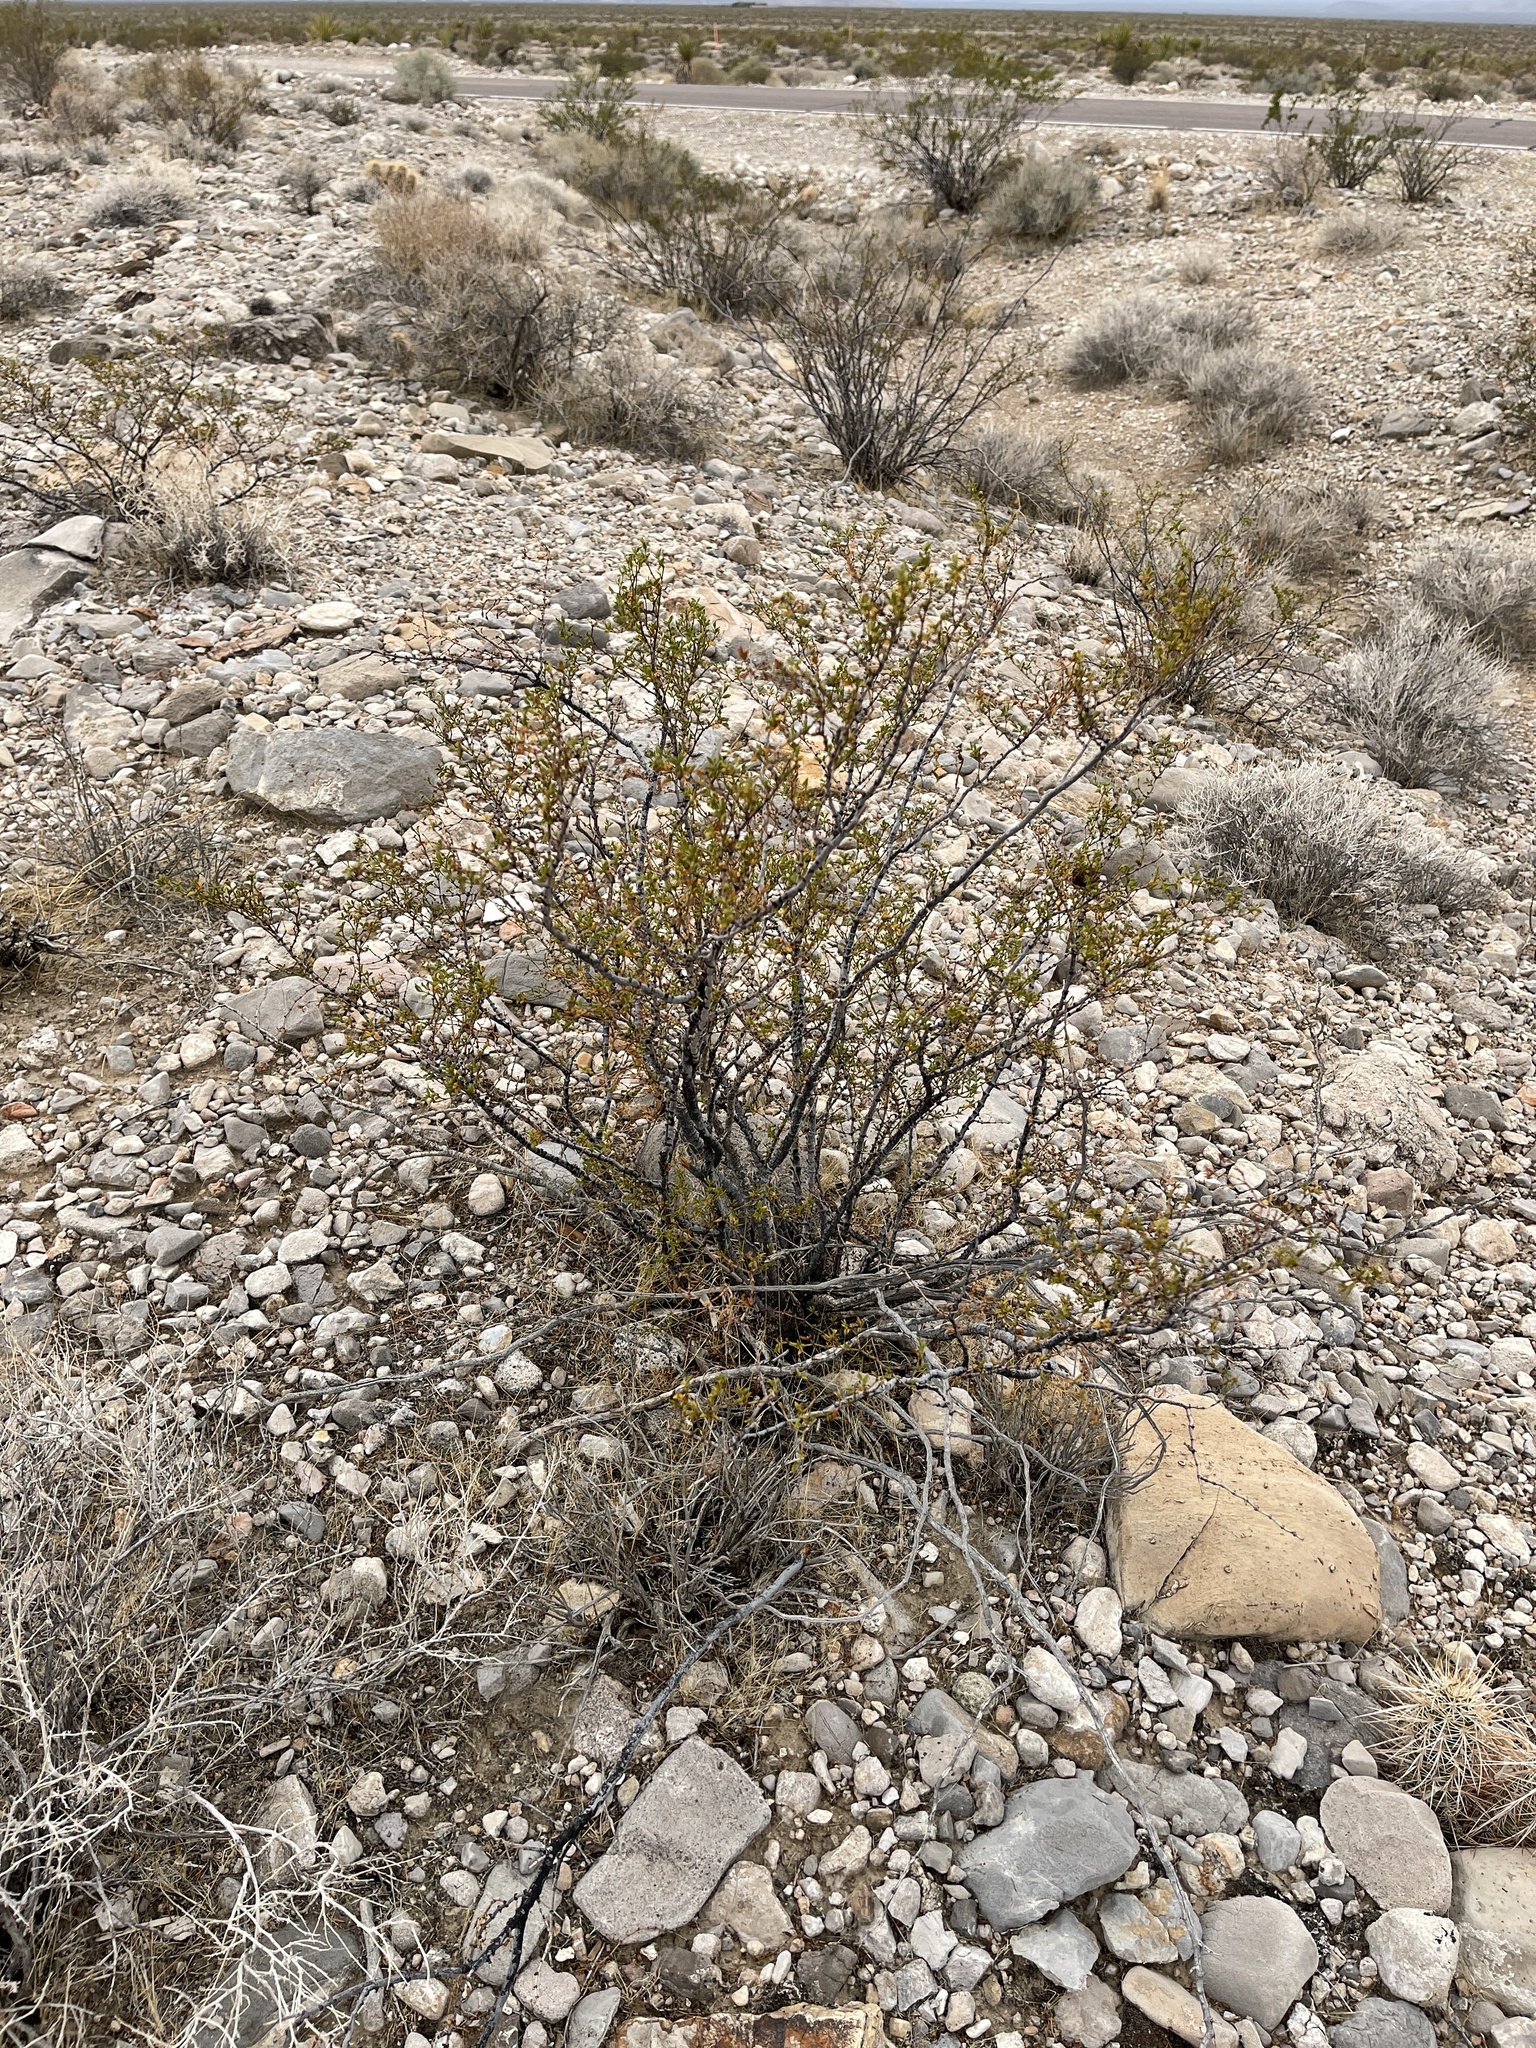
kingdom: Plantae
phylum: Tracheophyta
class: Magnoliopsida
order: Zygophyllales
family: Zygophyllaceae
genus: Larrea
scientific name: Larrea tridentata
